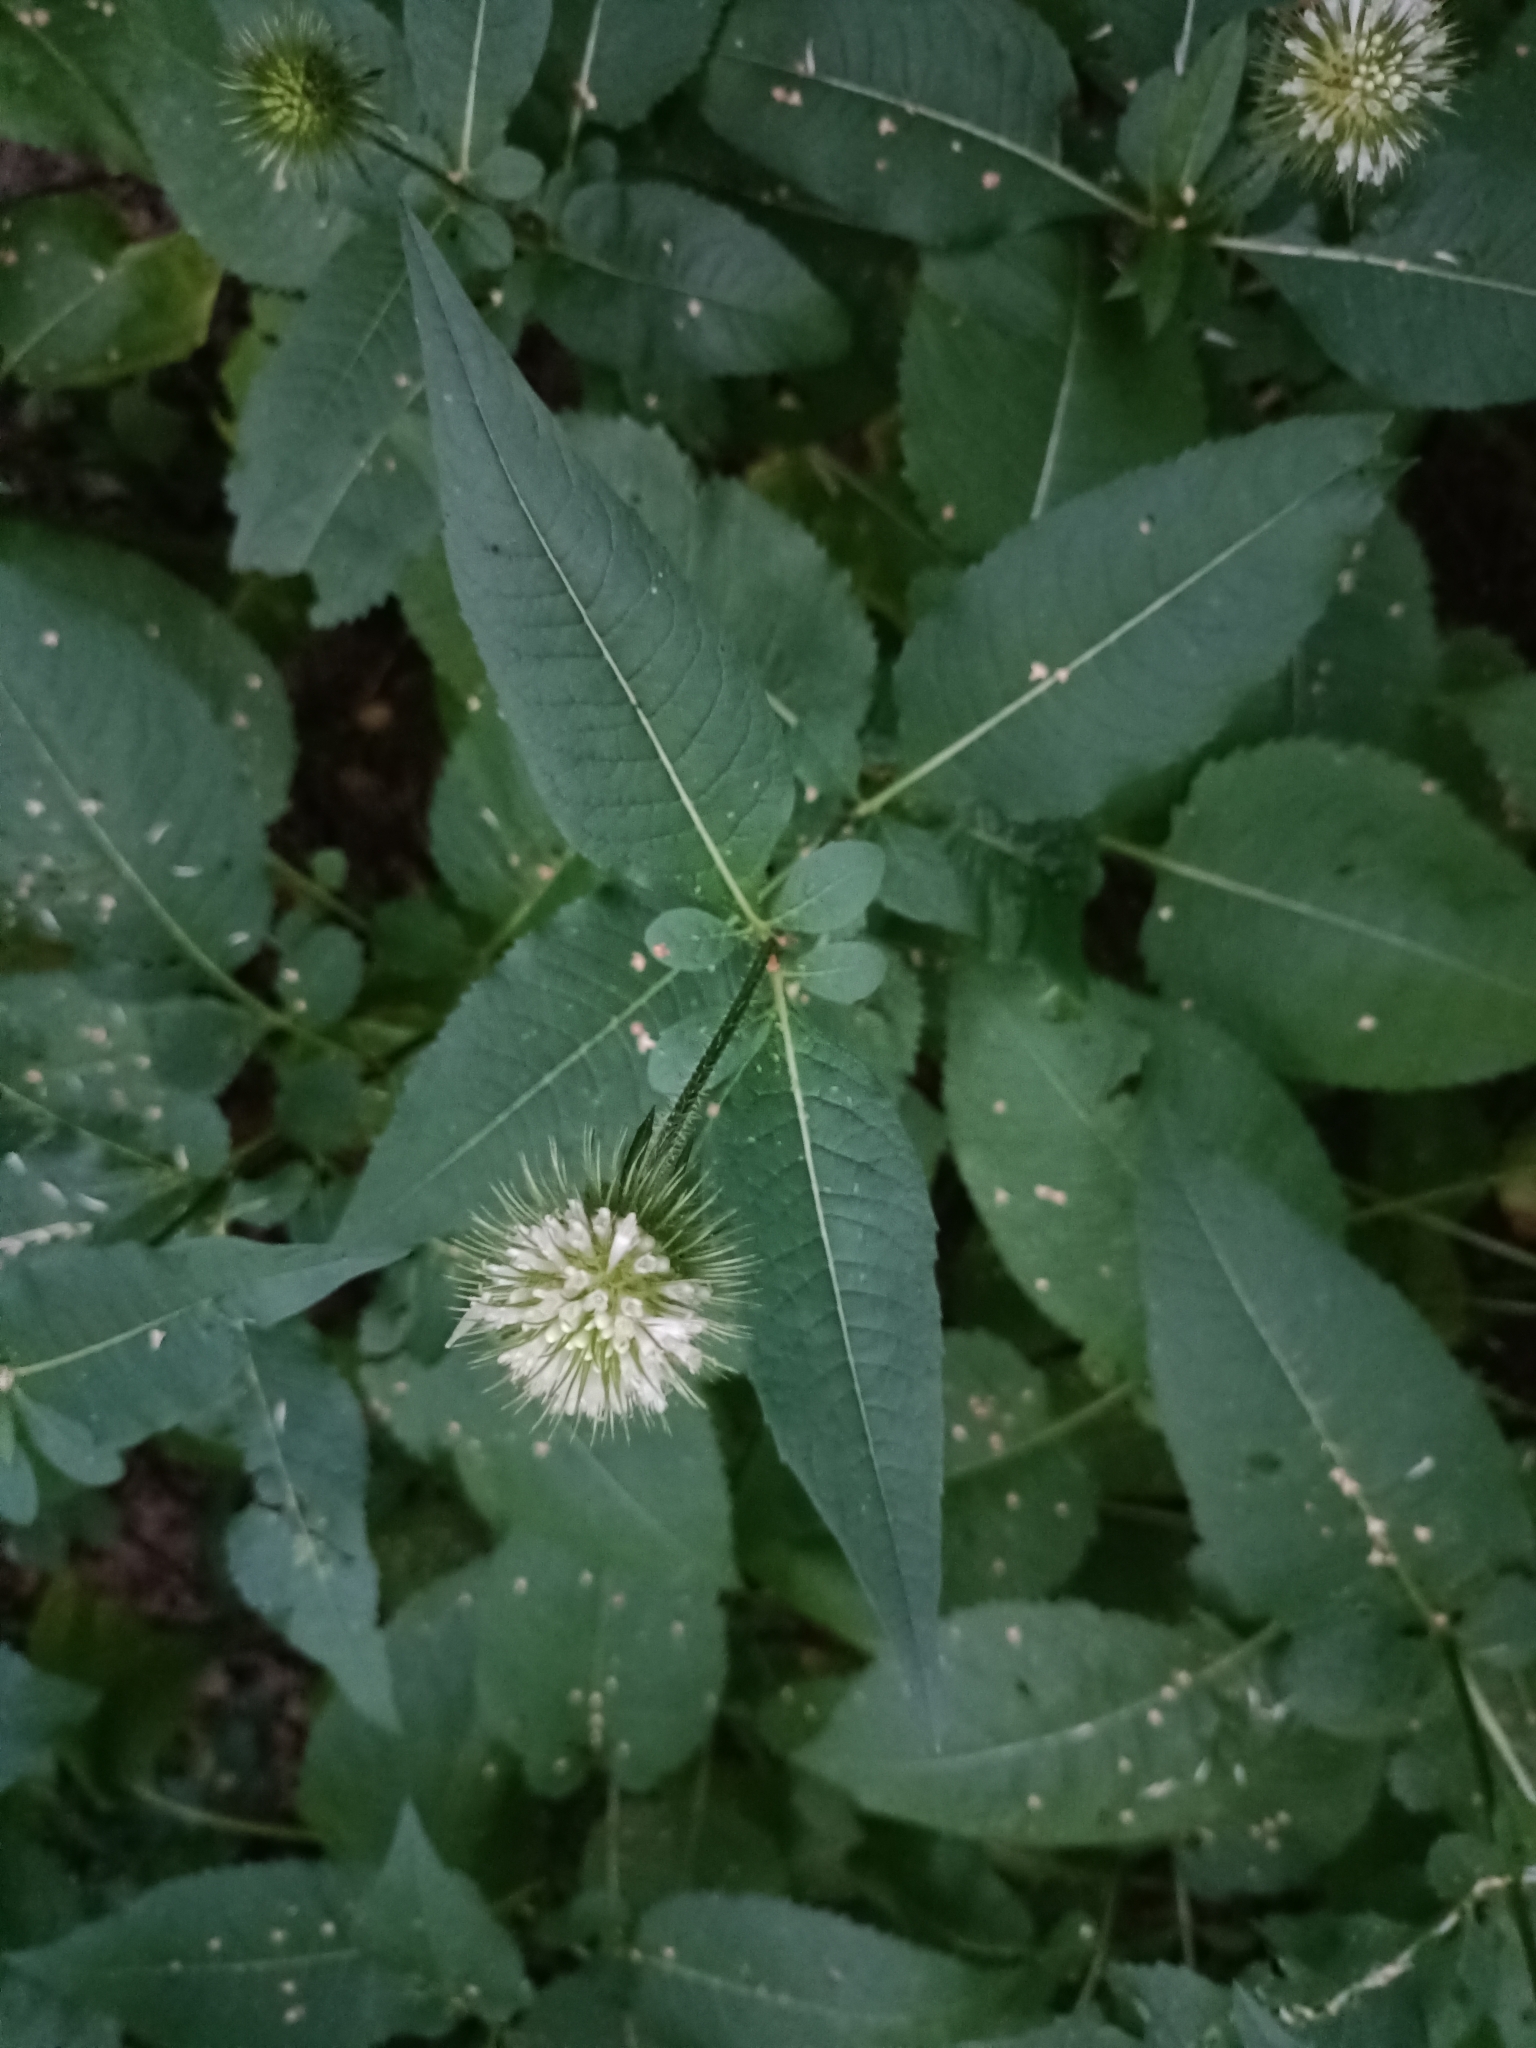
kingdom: Plantae
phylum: Tracheophyta
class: Magnoliopsida
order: Dipsacales
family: Caprifoliaceae
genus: Dipsacus
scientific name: Dipsacus strigosus
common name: Yellow-flowered teasel
